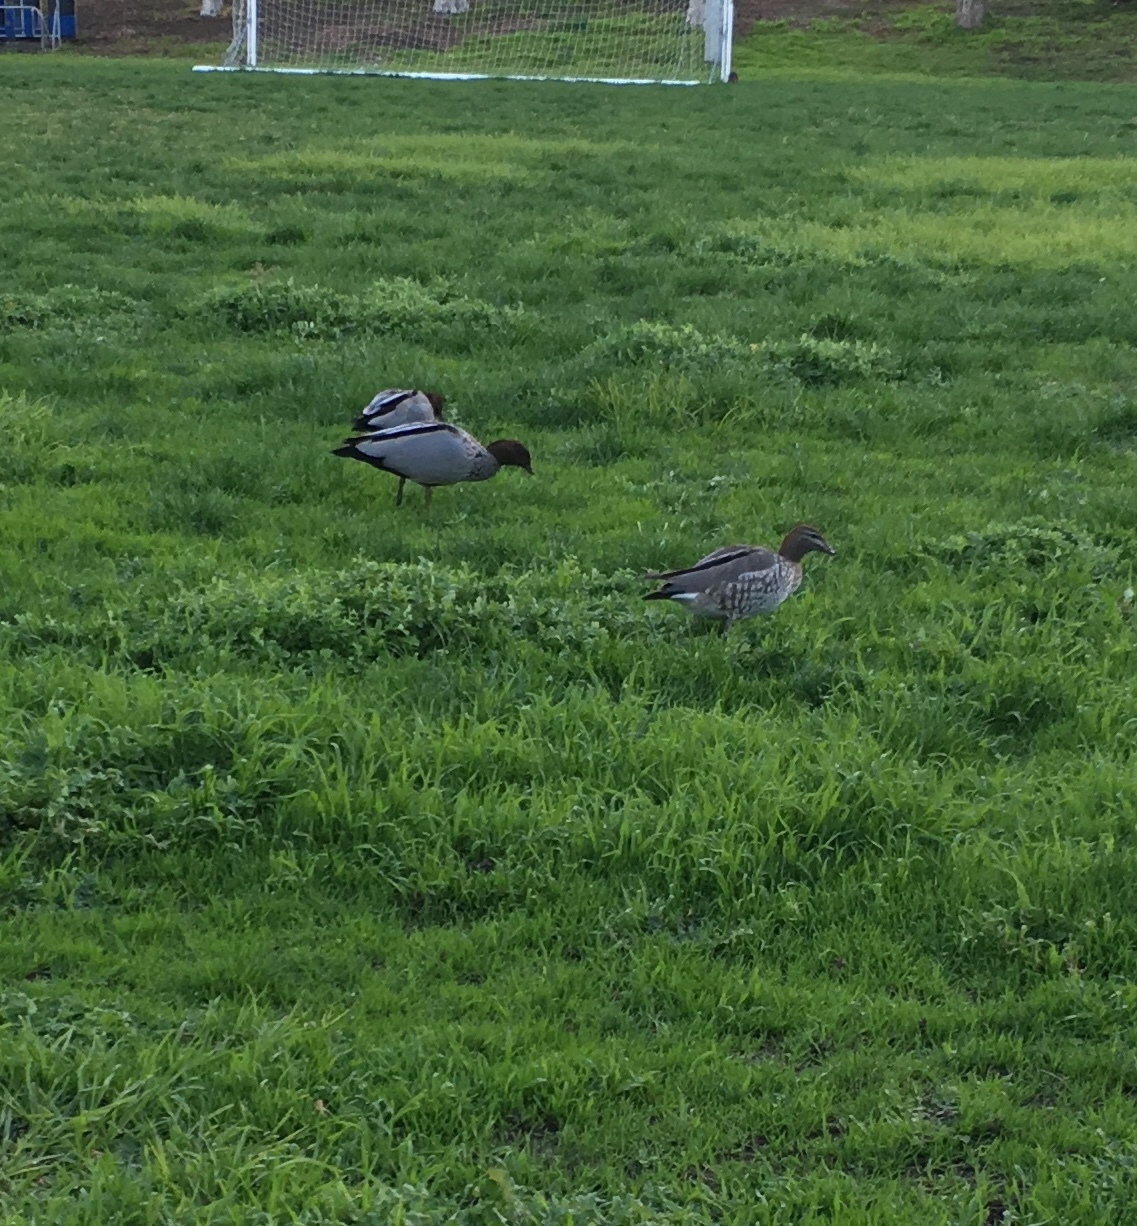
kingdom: Animalia
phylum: Chordata
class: Aves
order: Anseriformes
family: Anatidae
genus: Chenonetta
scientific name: Chenonetta jubata
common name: Maned duck
